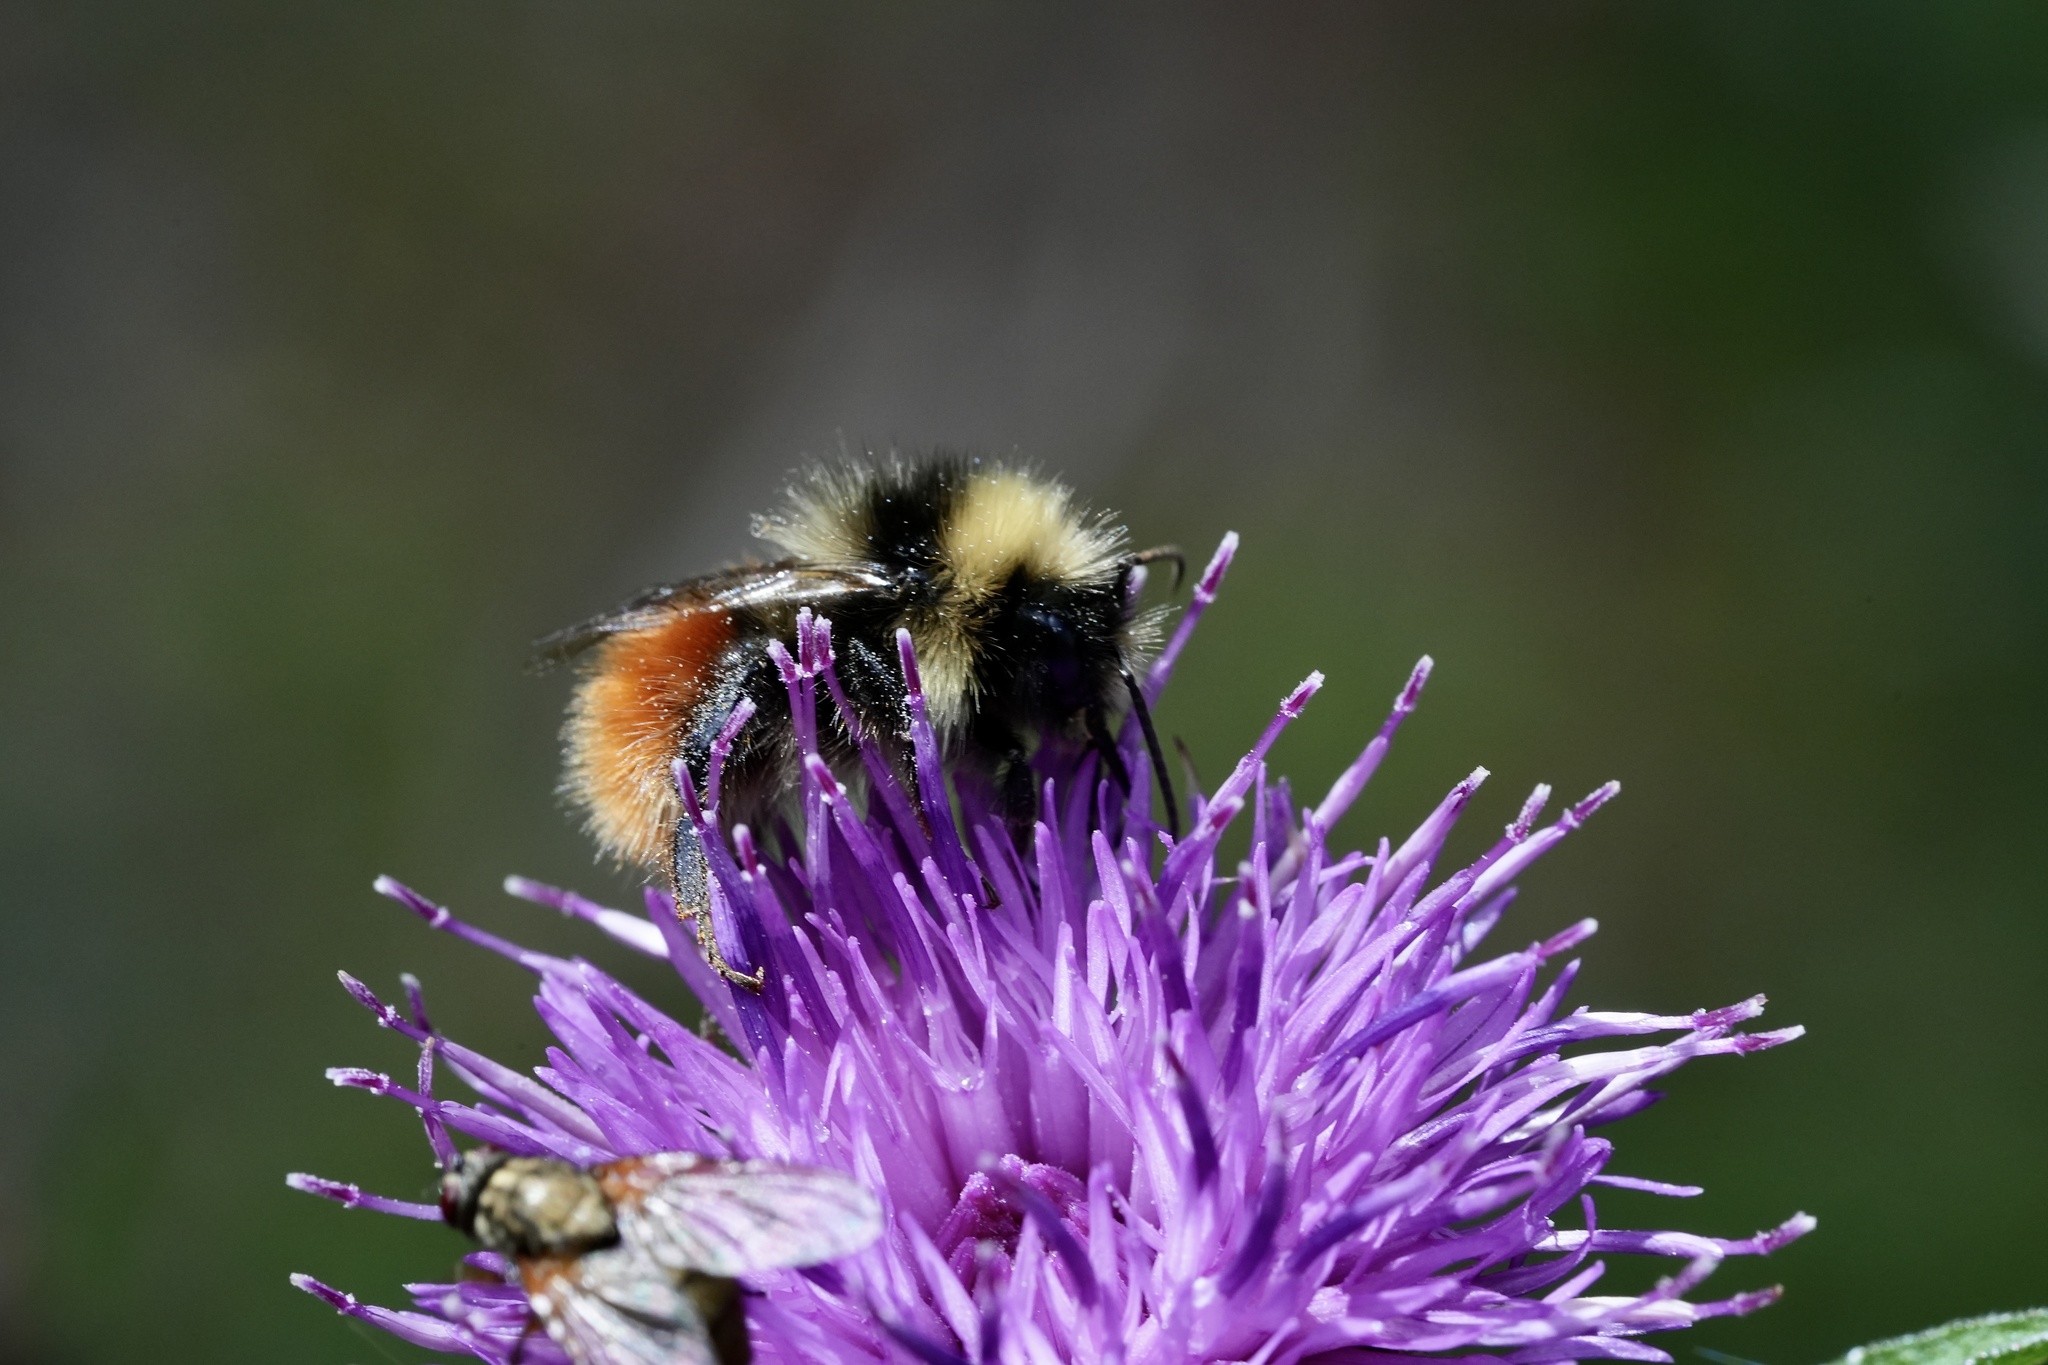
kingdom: Animalia
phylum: Arthropoda
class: Insecta
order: Hymenoptera
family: Apidae
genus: Bombus
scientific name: Bombus monticola
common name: Bilberry humble-bee
